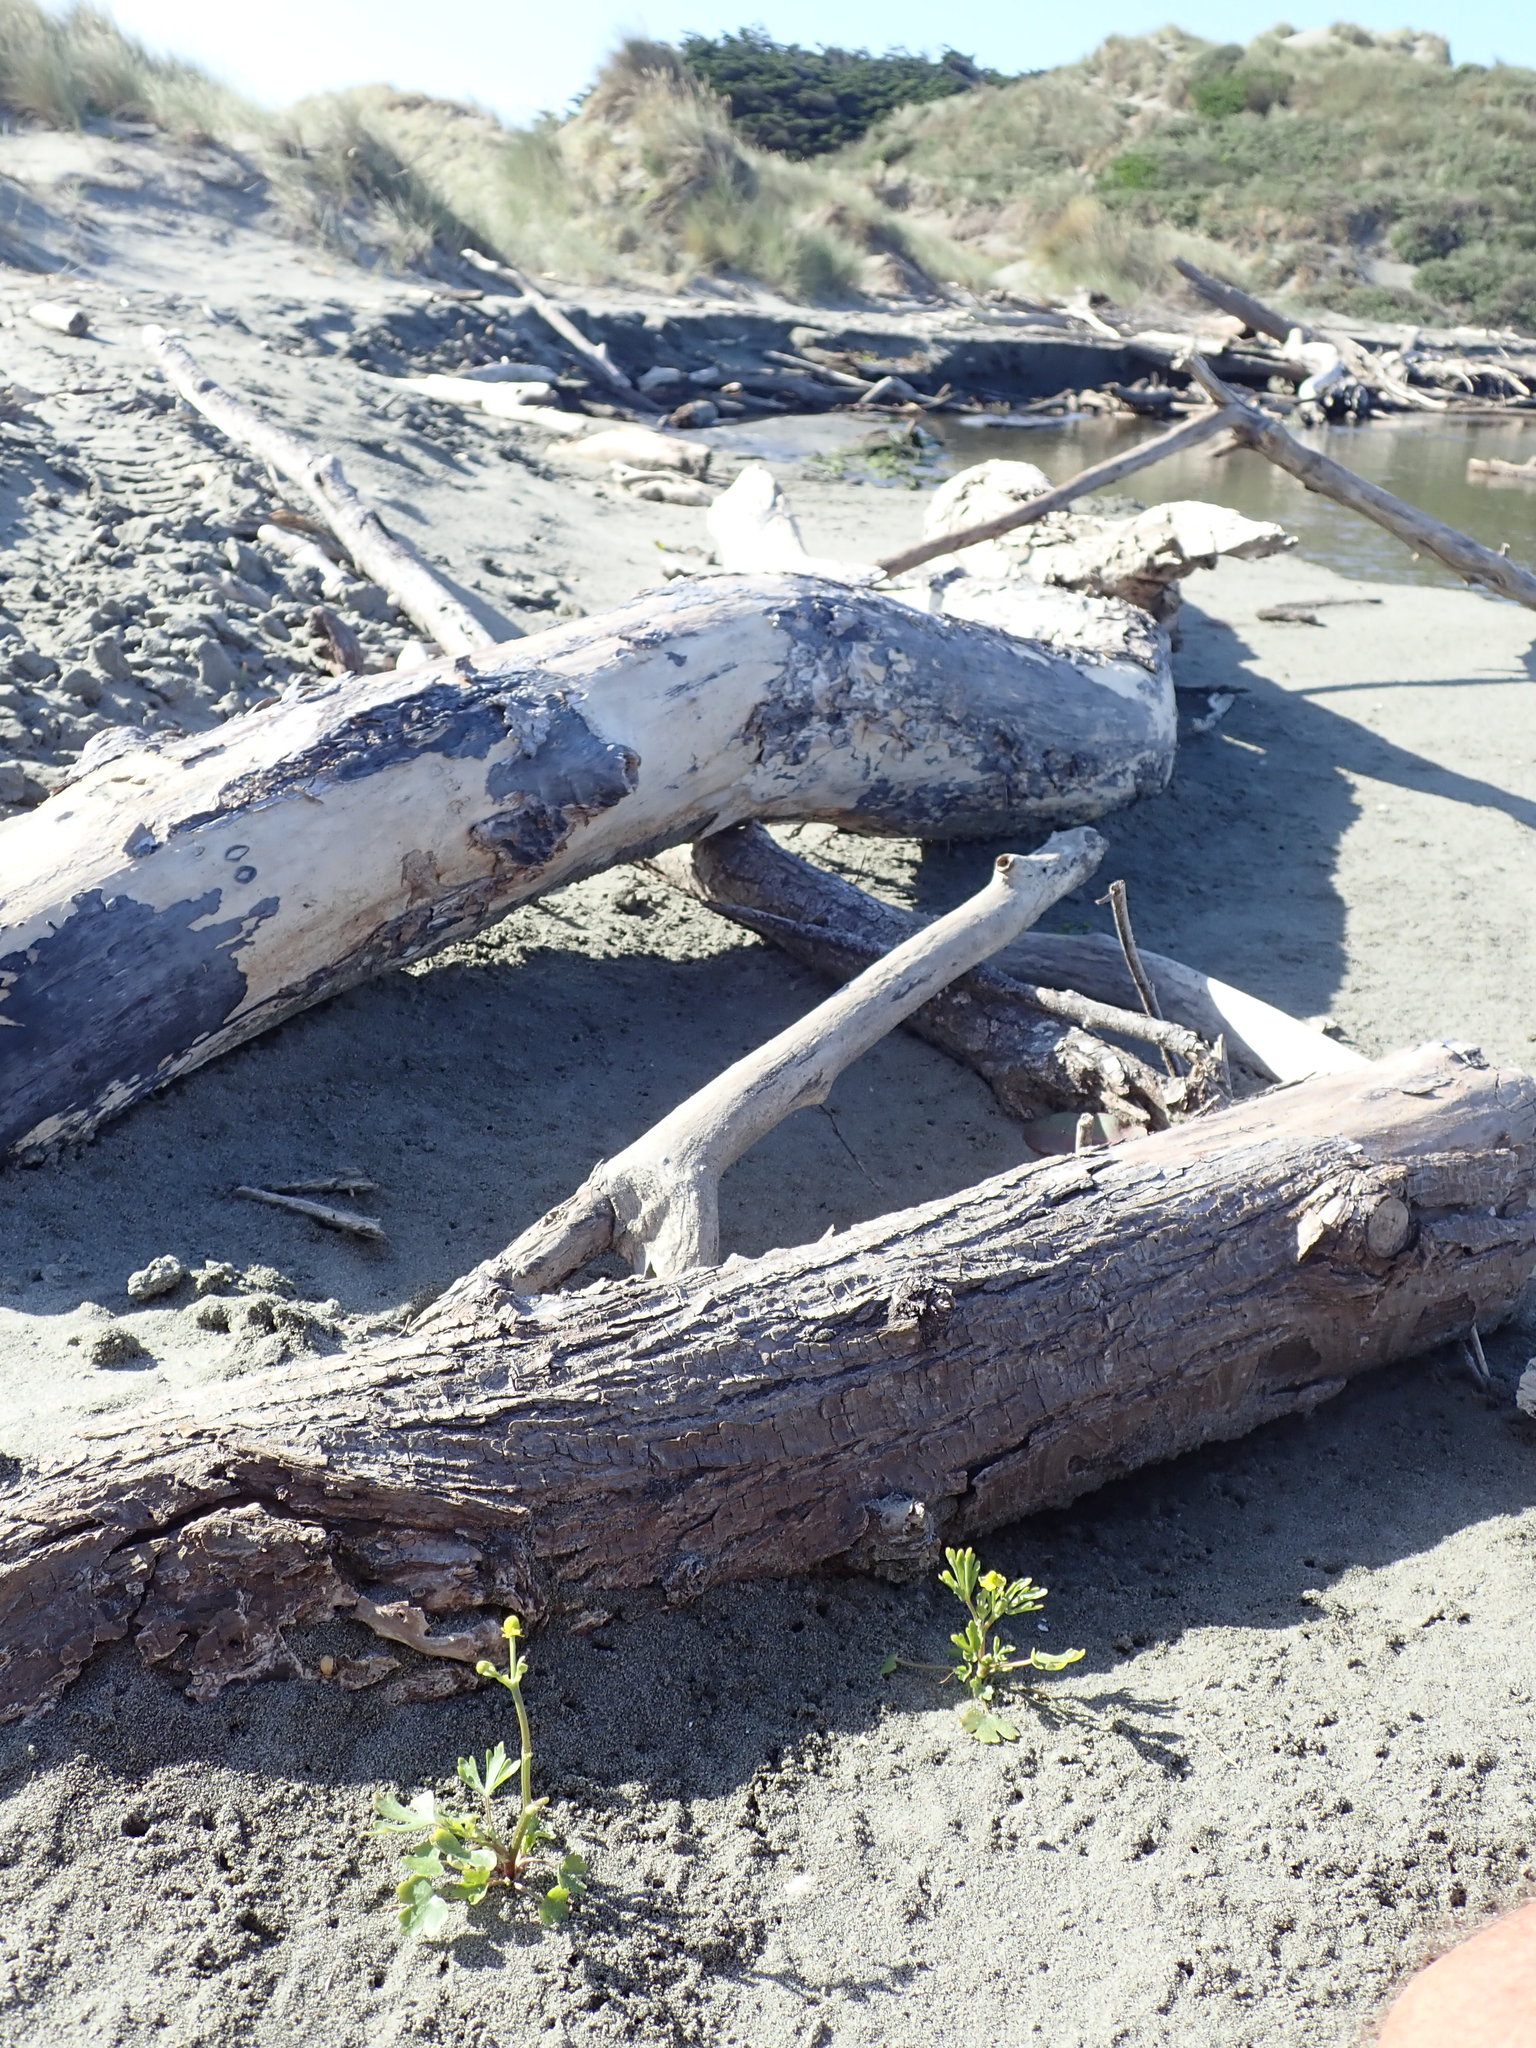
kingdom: Plantae
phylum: Tracheophyta
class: Magnoliopsida
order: Ranunculales
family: Ranunculaceae
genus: Ranunculus
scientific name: Ranunculus sceleratus
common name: Celery-leaved buttercup
